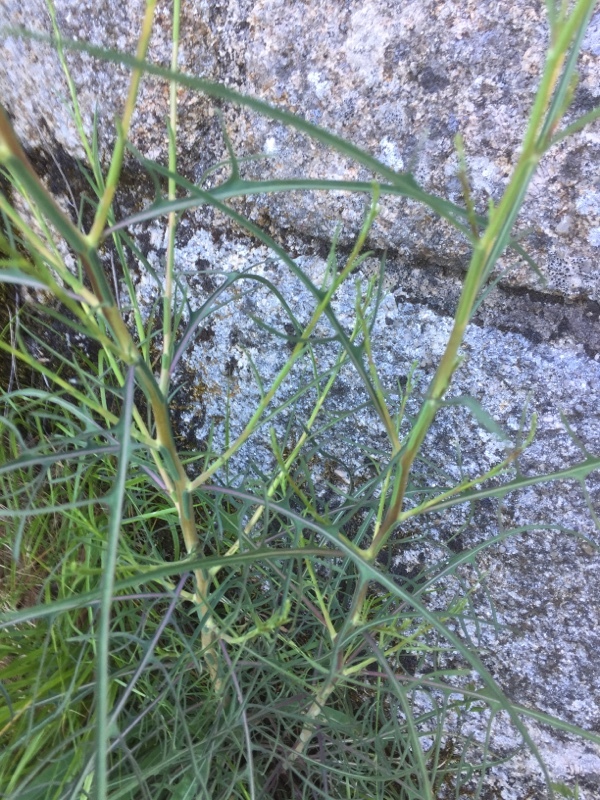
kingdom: Plantae
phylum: Tracheophyta
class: Magnoliopsida
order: Asterales
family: Asteraceae
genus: Lactuca
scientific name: Lactuca viminea
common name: Pliant lettuce
